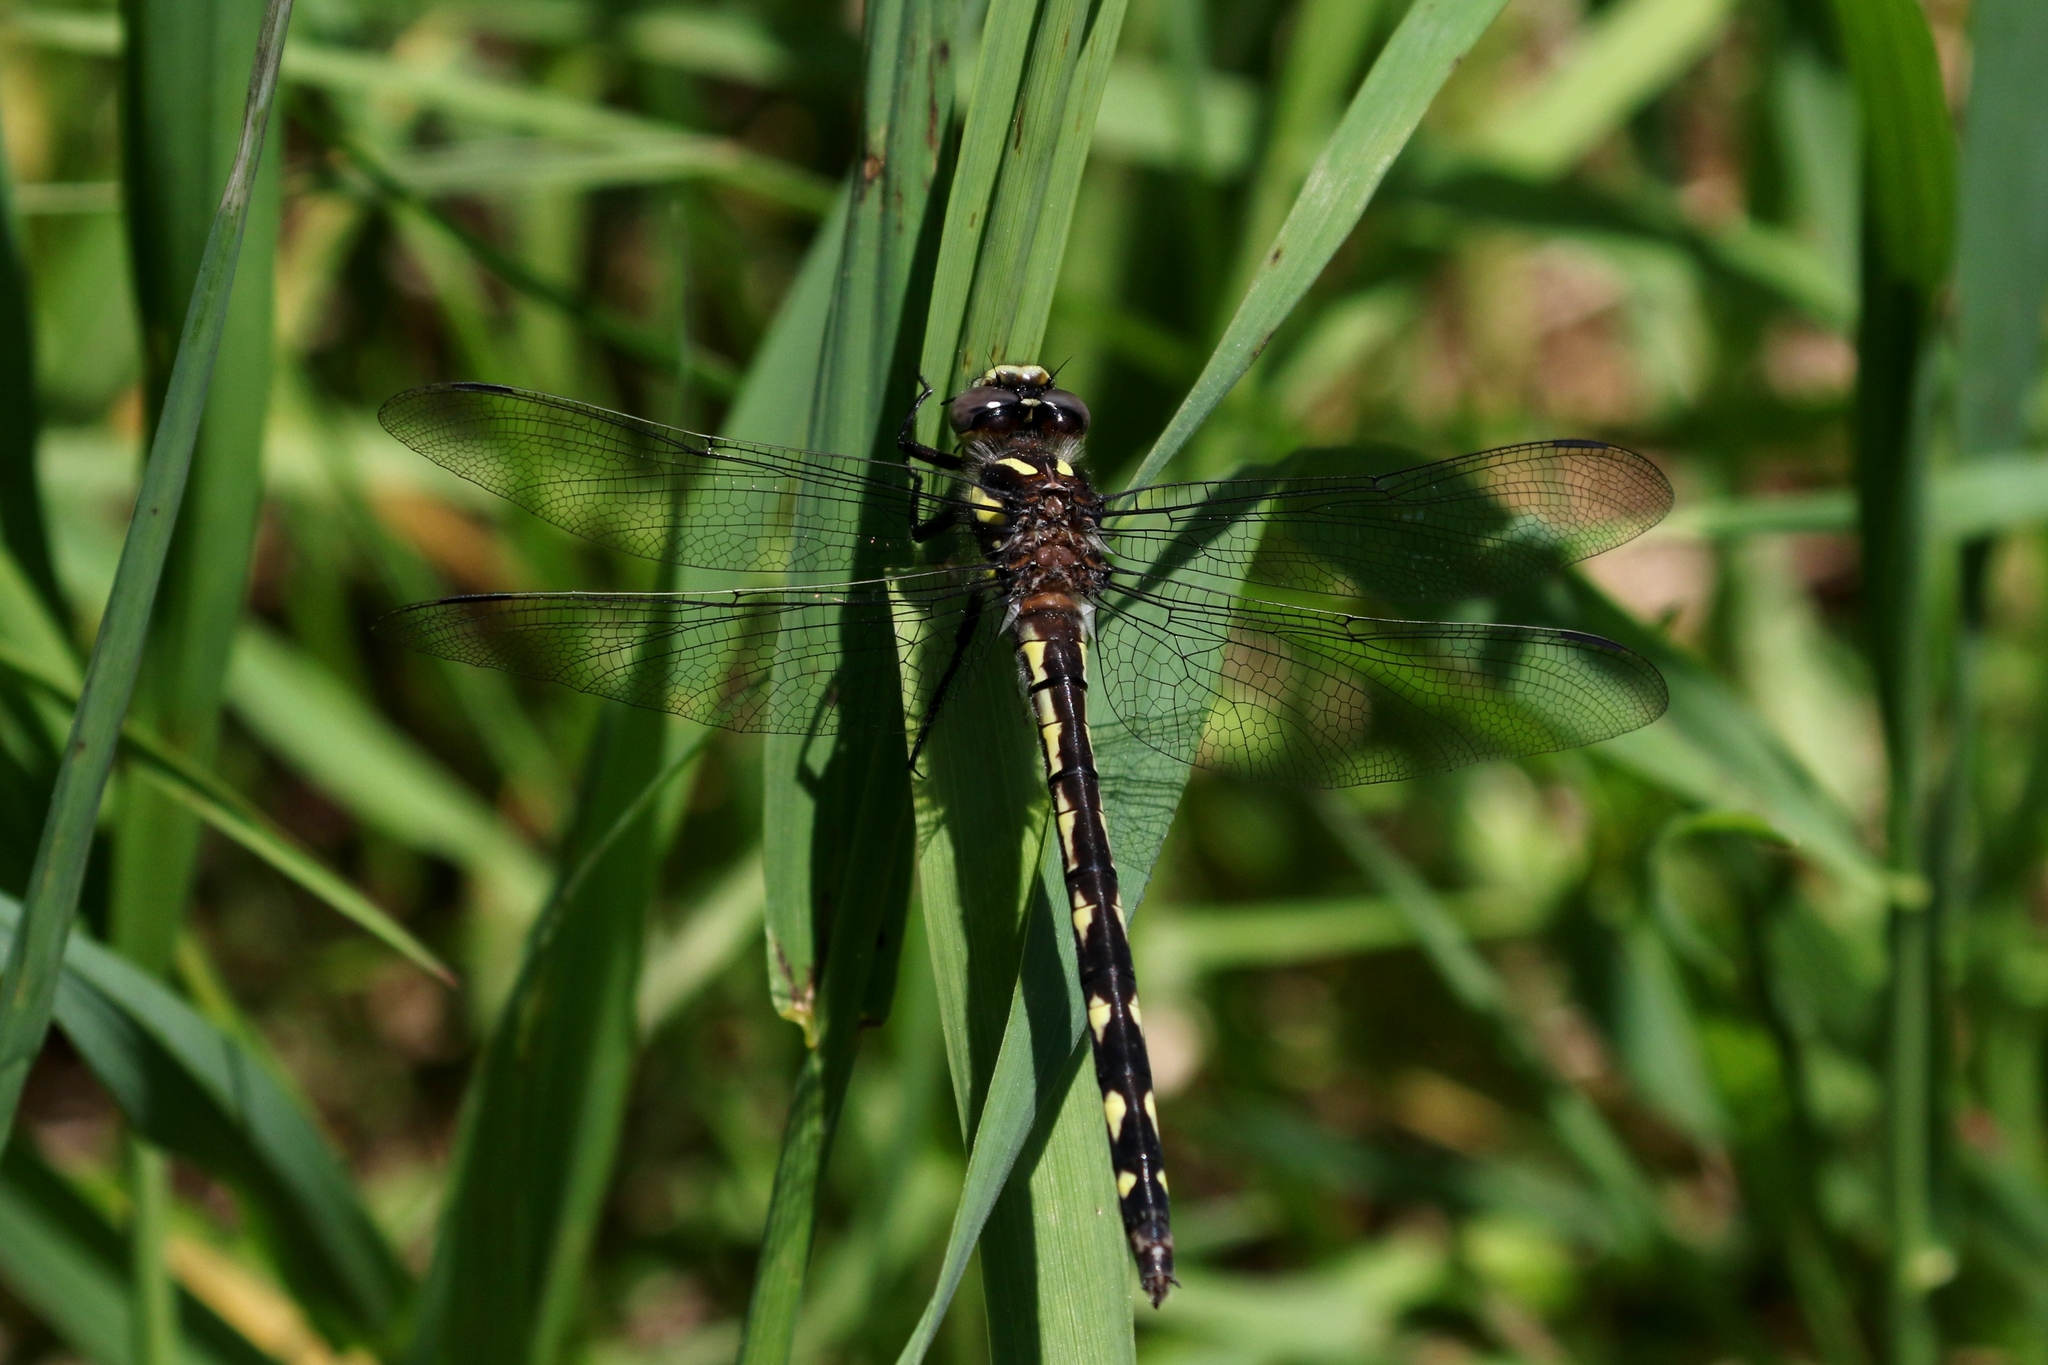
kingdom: Animalia
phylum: Arthropoda
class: Insecta
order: Odonata
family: Cordulegastridae
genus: Cordulegaster
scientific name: Cordulegaster diastatops
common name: Delta-spotted spiketail
